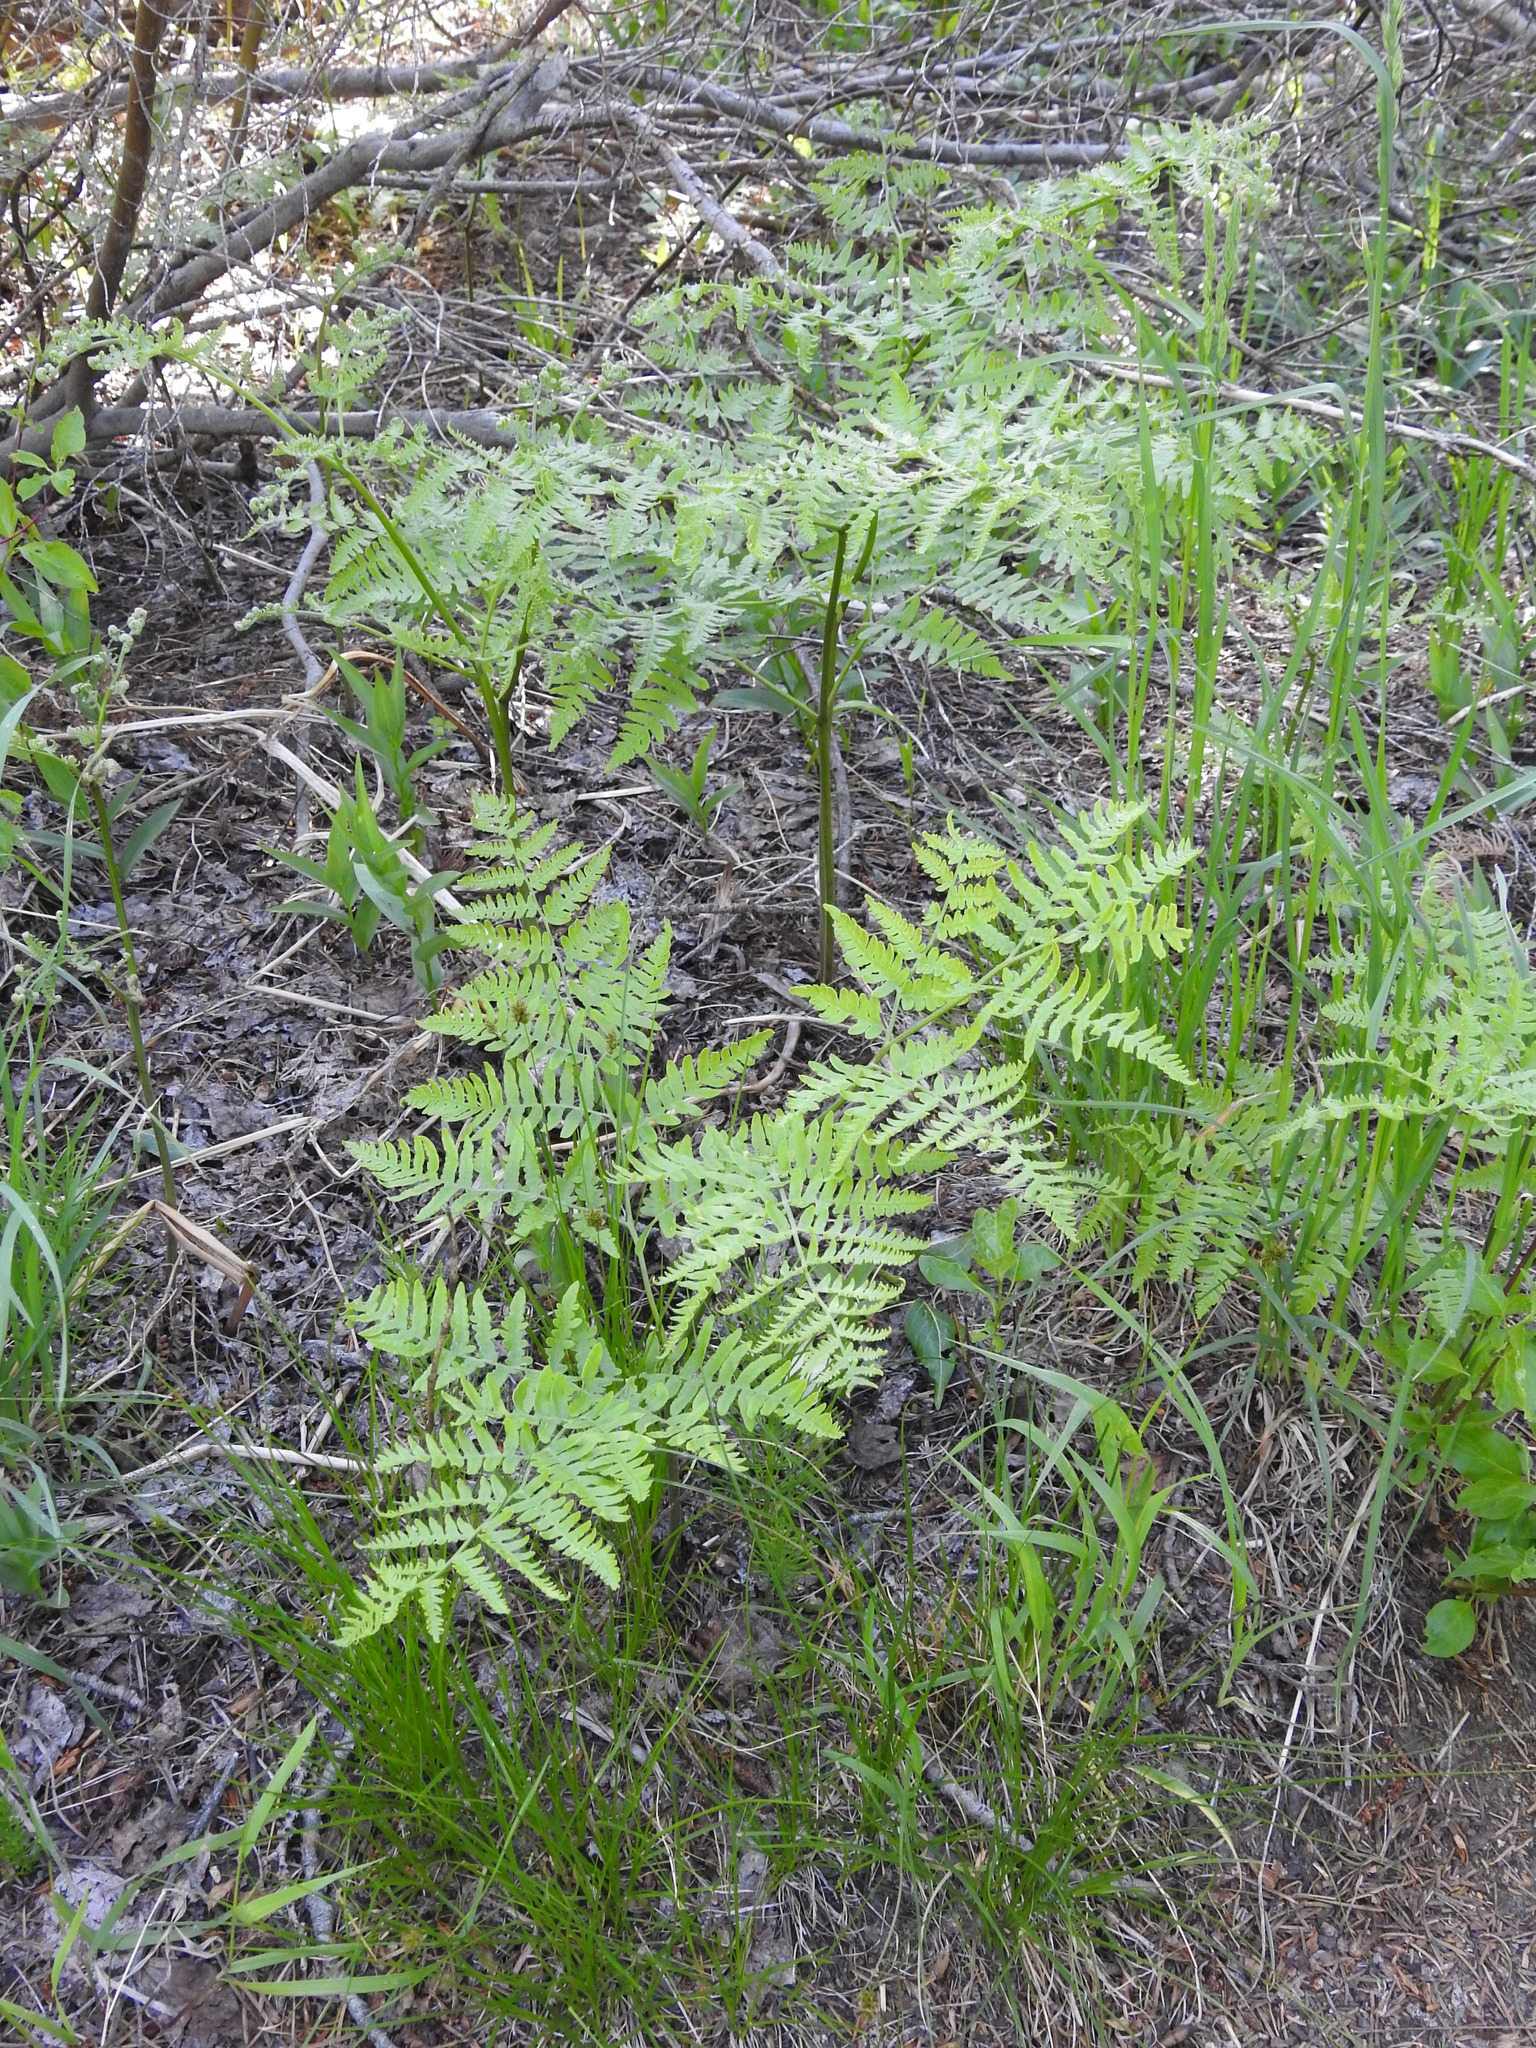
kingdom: Plantae
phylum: Tracheophyta
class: Polypodiopsida
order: Polypodiales
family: Dennstaedtiaceae
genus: Pteridium
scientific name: Pteridium aquilinum
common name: Bracken
